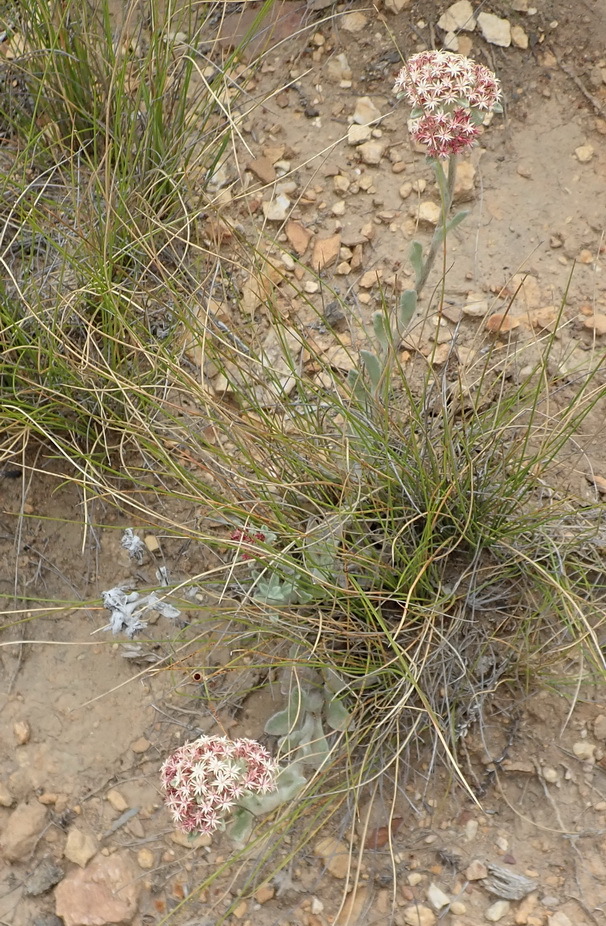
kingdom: Plantae
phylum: Tracheophyta
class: Magnoliopsida
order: Asterales
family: Asteraceae
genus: Helichrysum
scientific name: Helichrysum spiralepis
